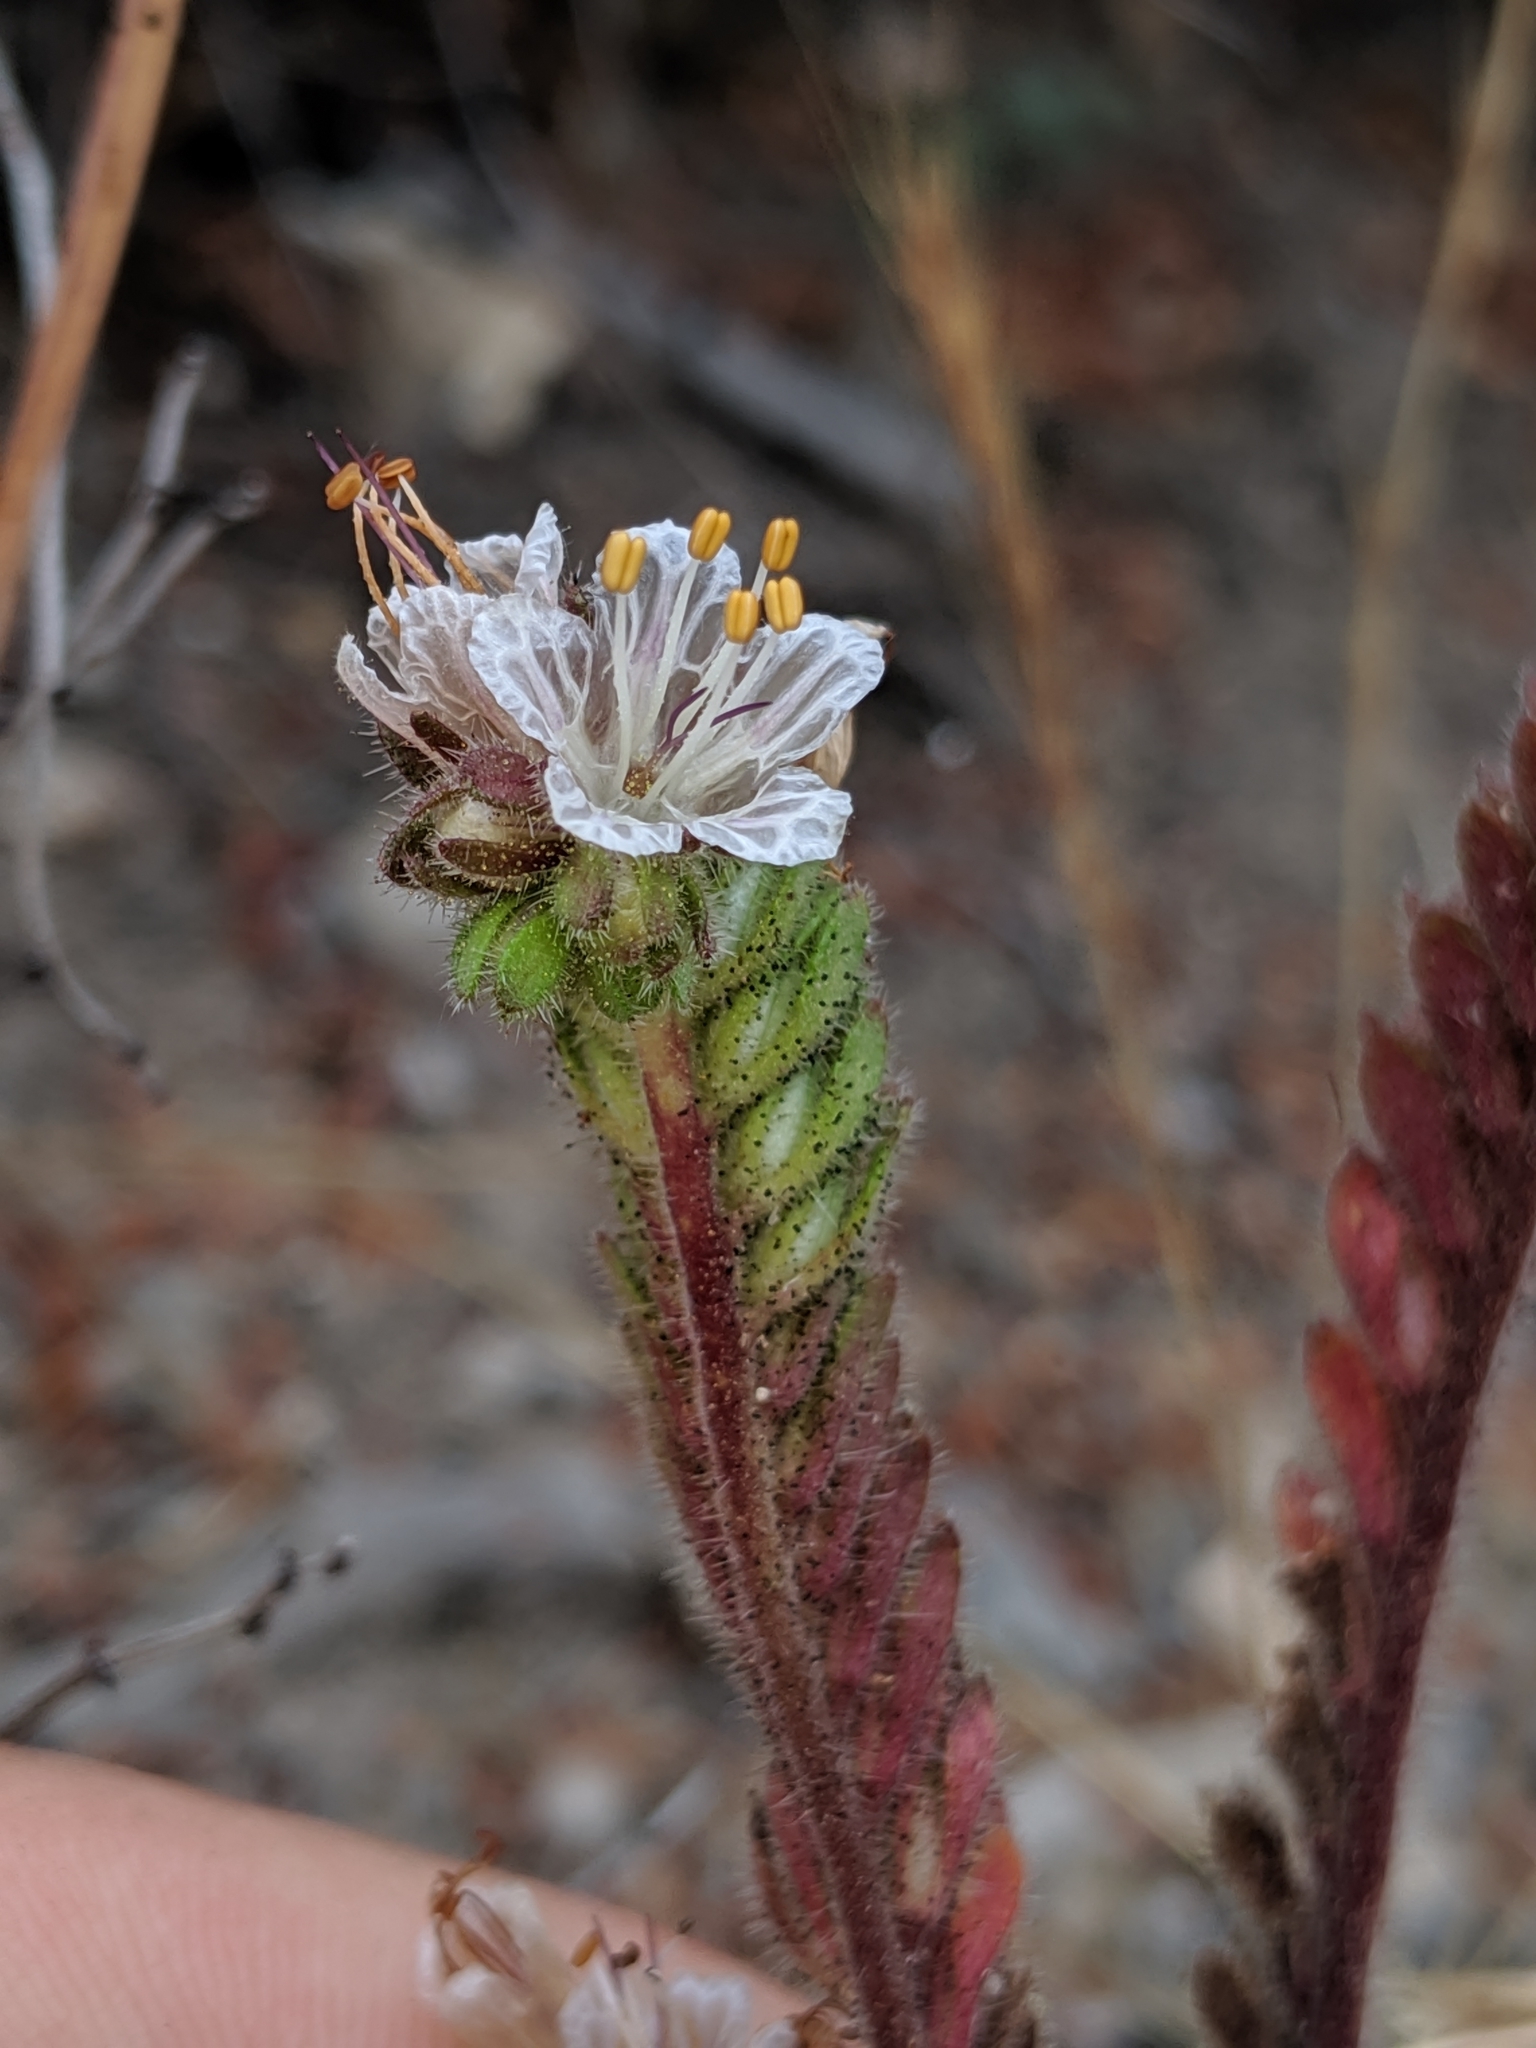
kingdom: Plantae
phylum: Tracheophyta
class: Magnoliopsida
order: Boraginales
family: Hydrophyllaceae
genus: Phacelia
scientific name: Phacelia grisea
